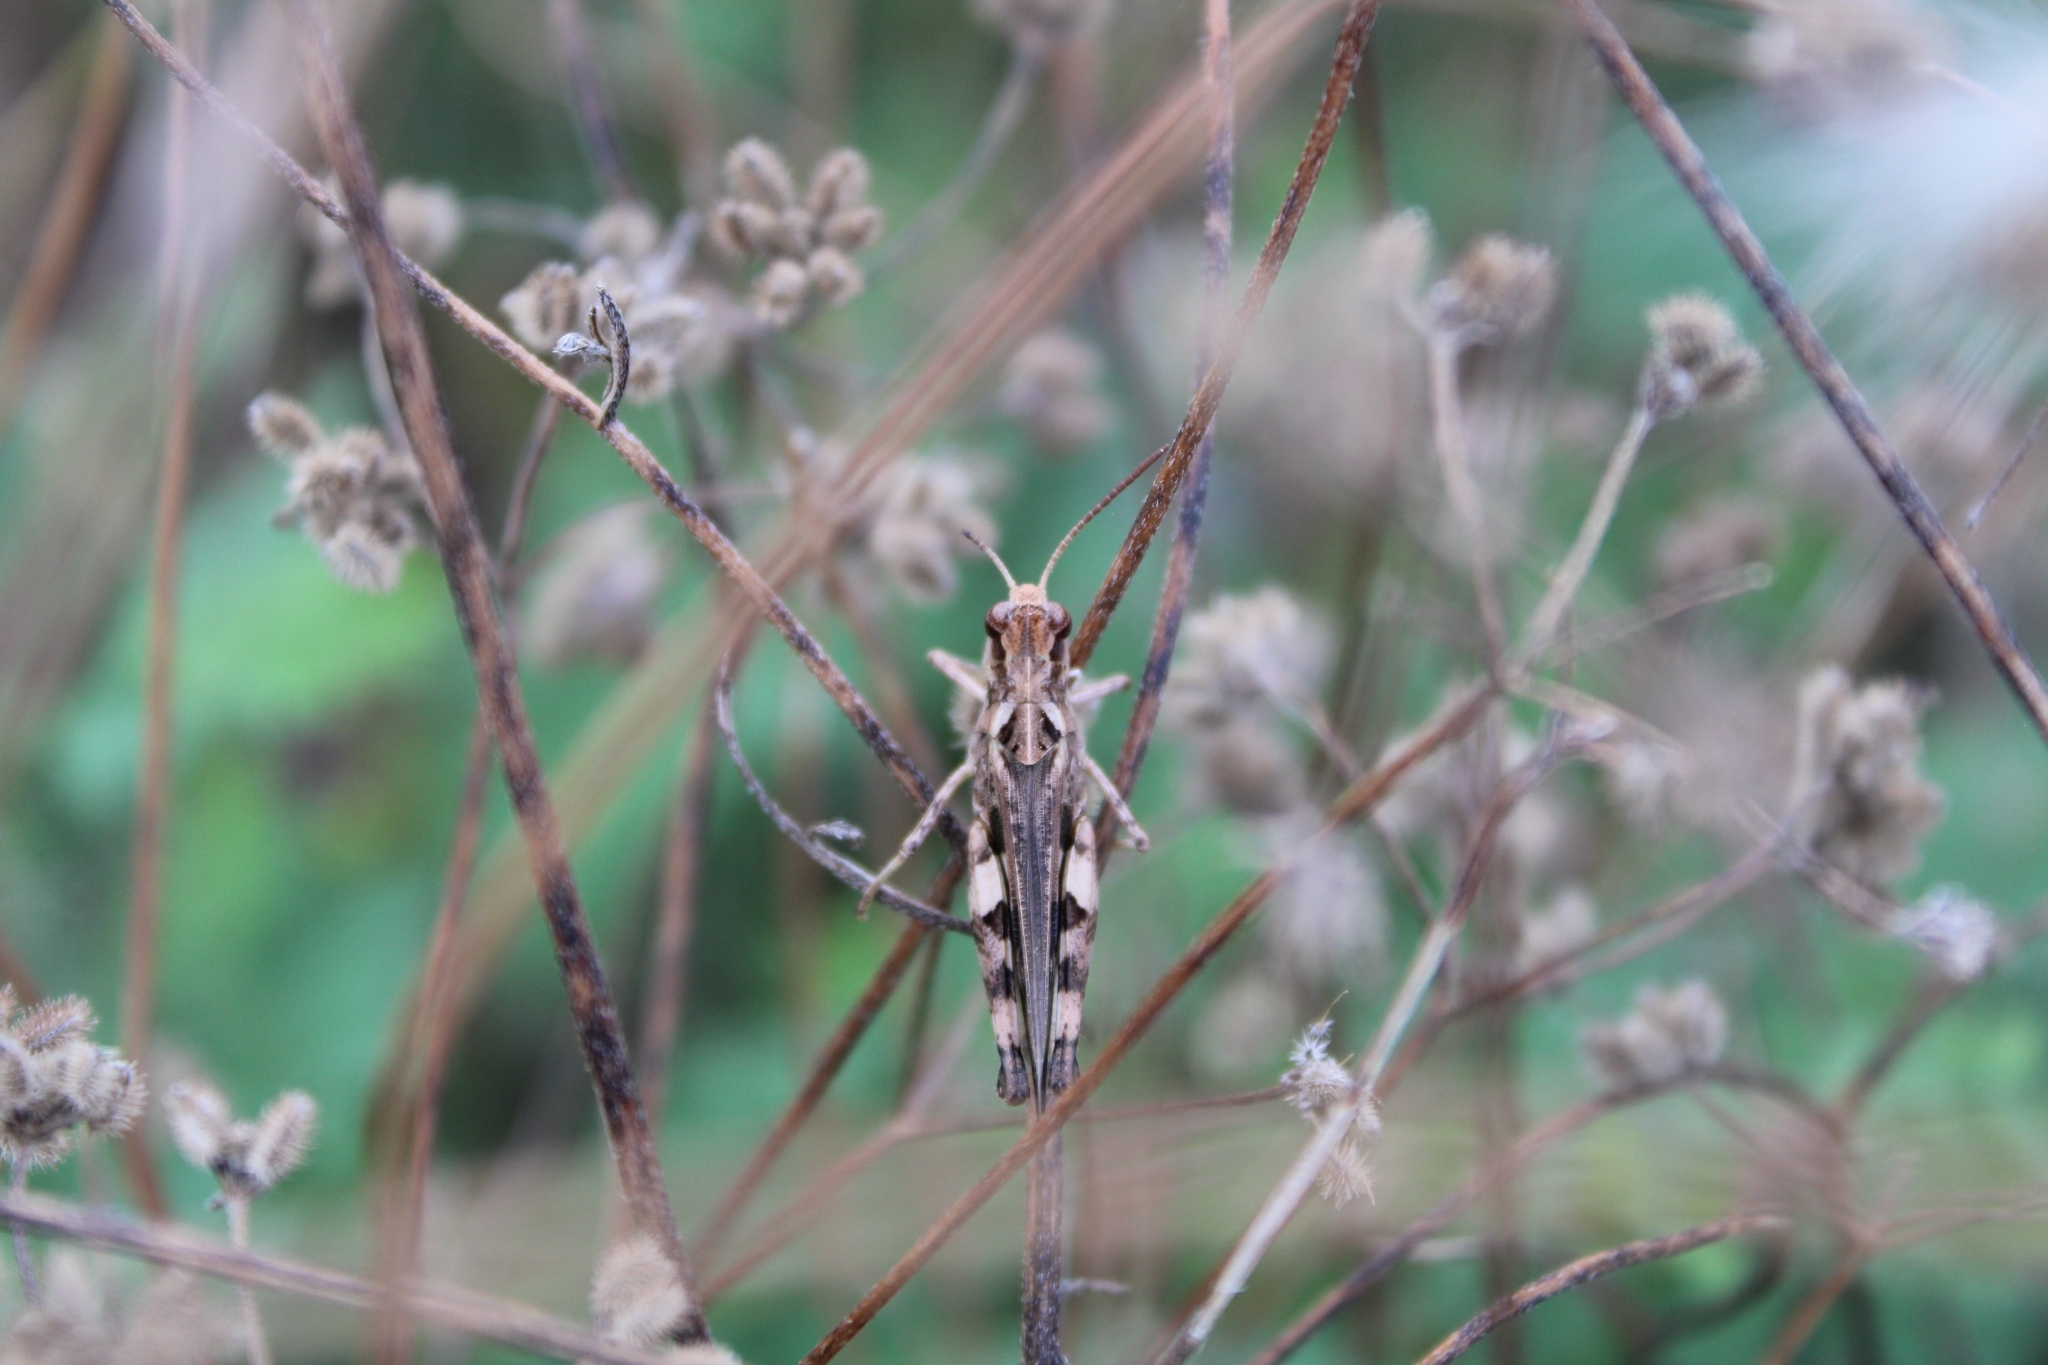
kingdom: Animalia
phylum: Arthropoda
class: Insecta
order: Orthoptera
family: Acrididae
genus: Encoptolophus
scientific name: Encoptolophus costalis
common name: Dusky grasshopper
